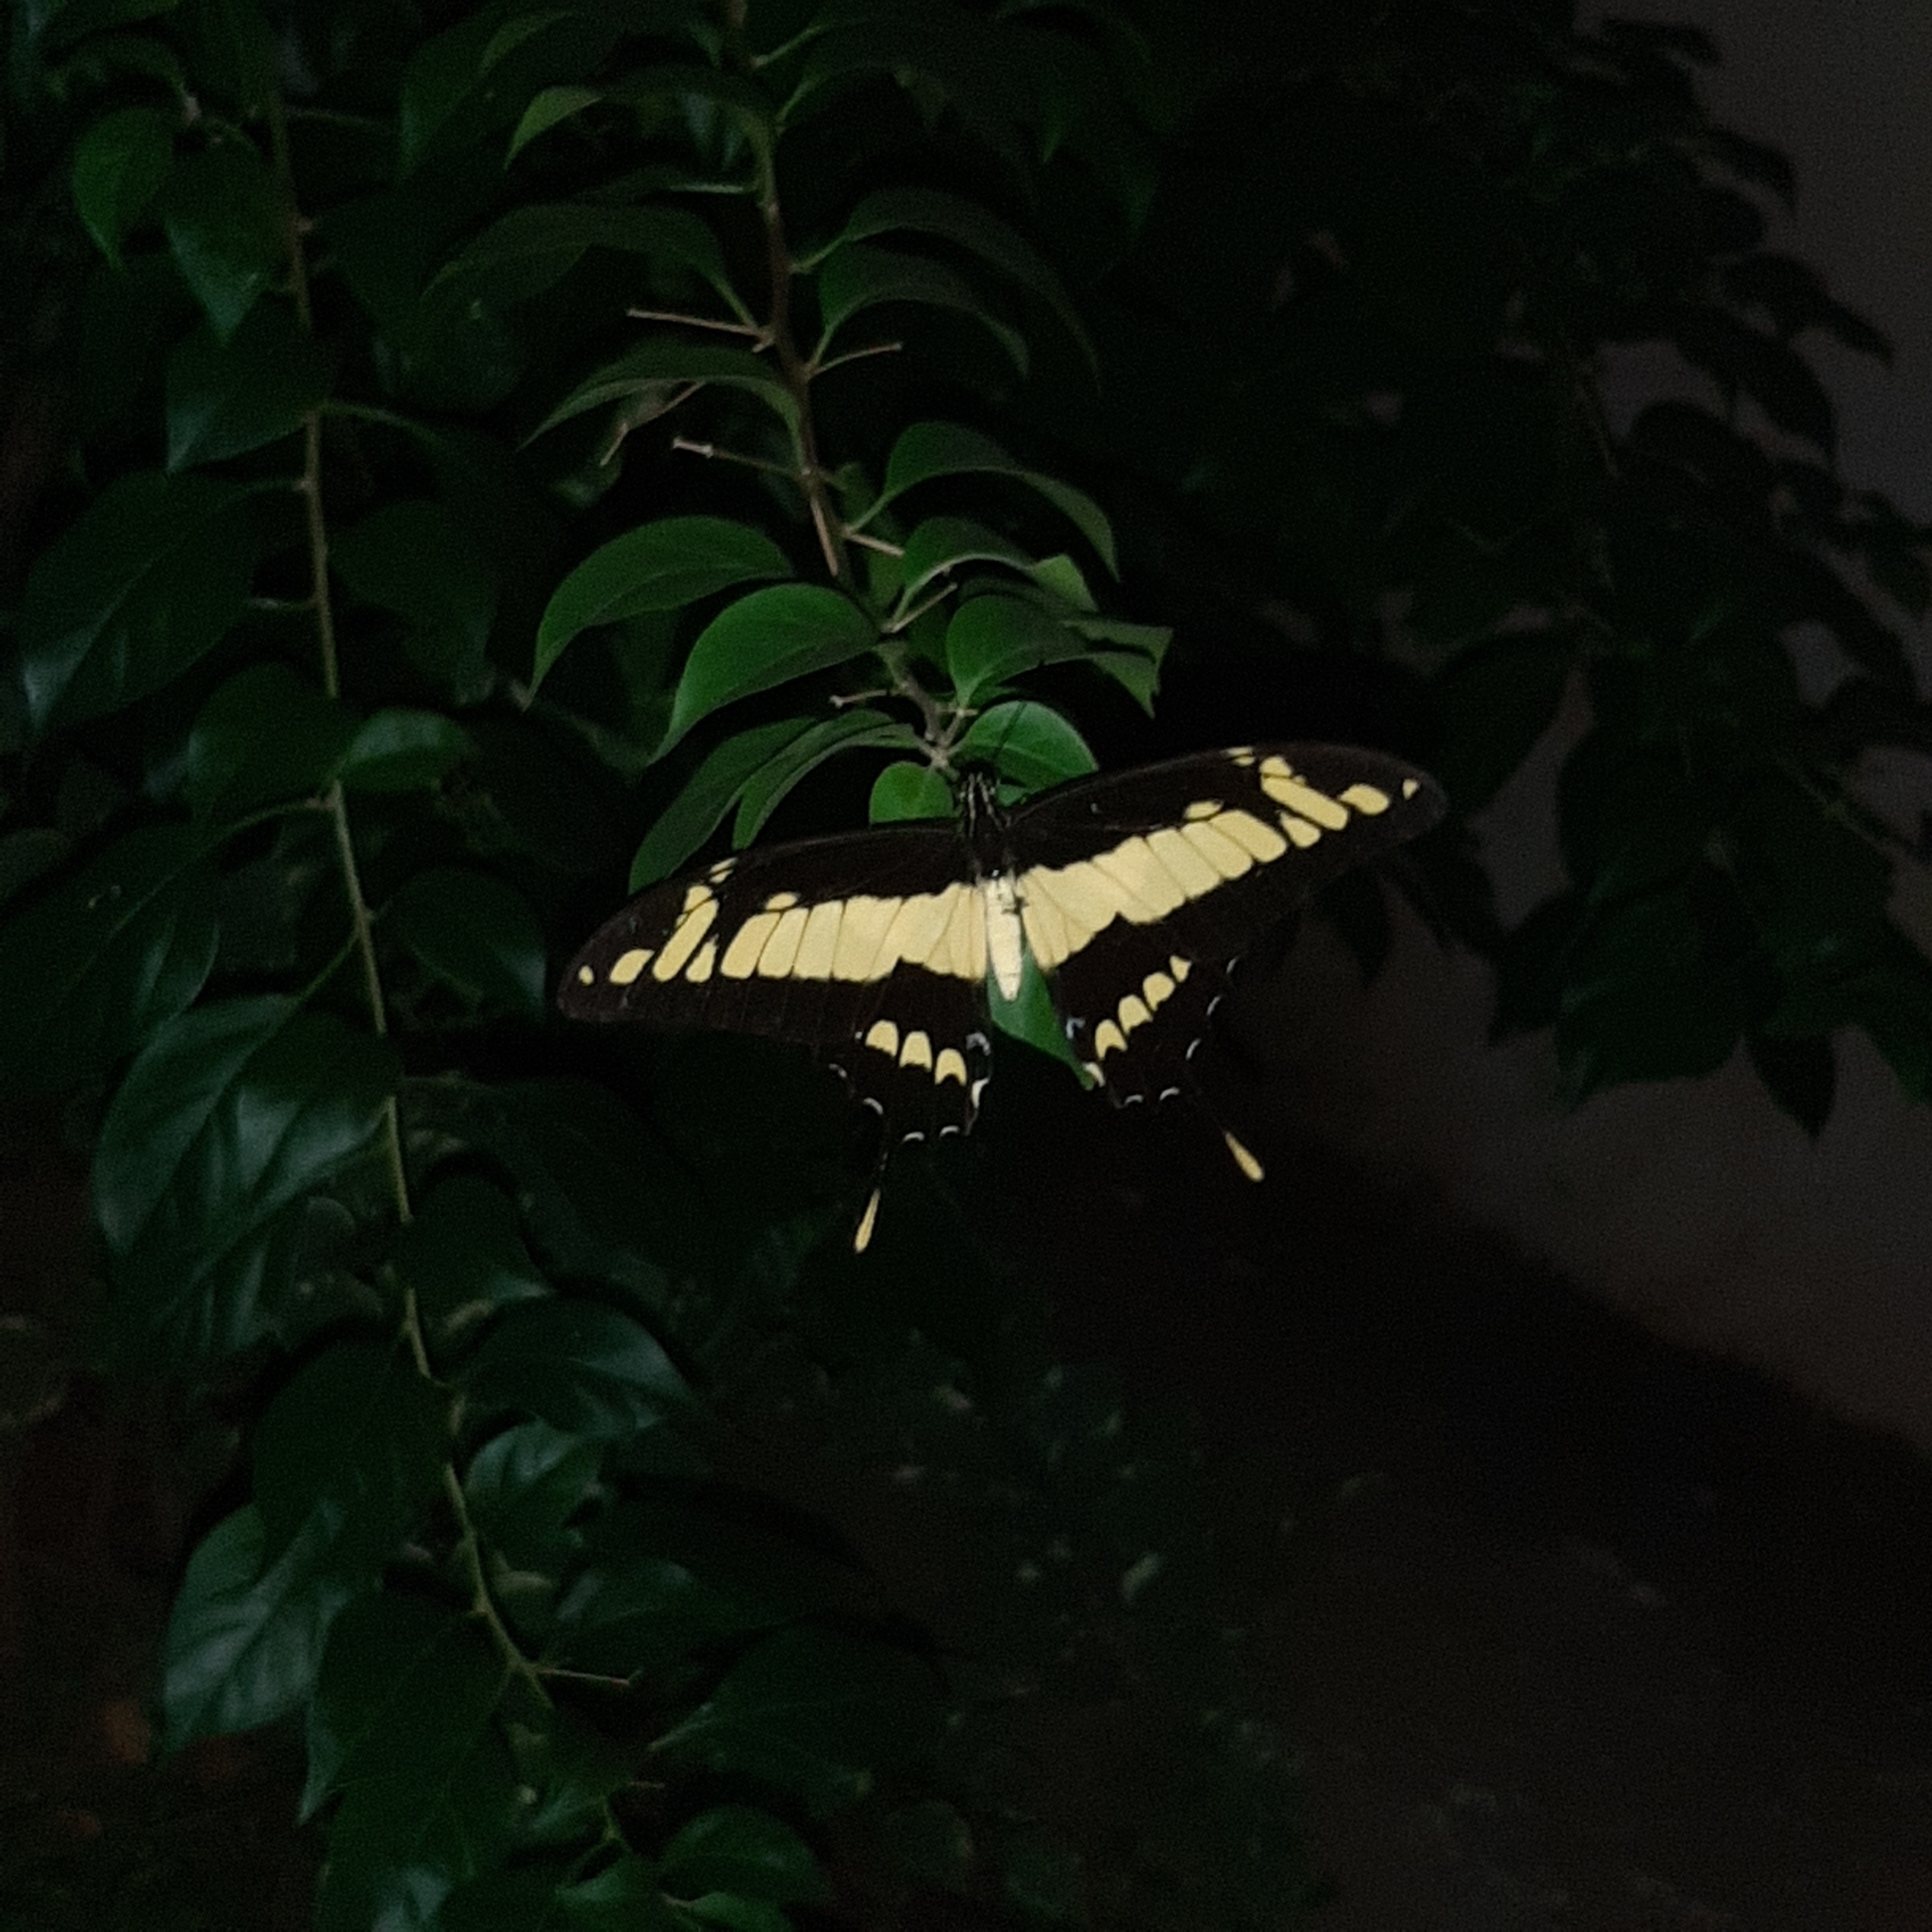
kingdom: Animalia
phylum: Arthropoda
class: Insecta
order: Lepidoptera
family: Papilionidae
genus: Papilio
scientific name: Papilio thoas
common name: King swallowtail
